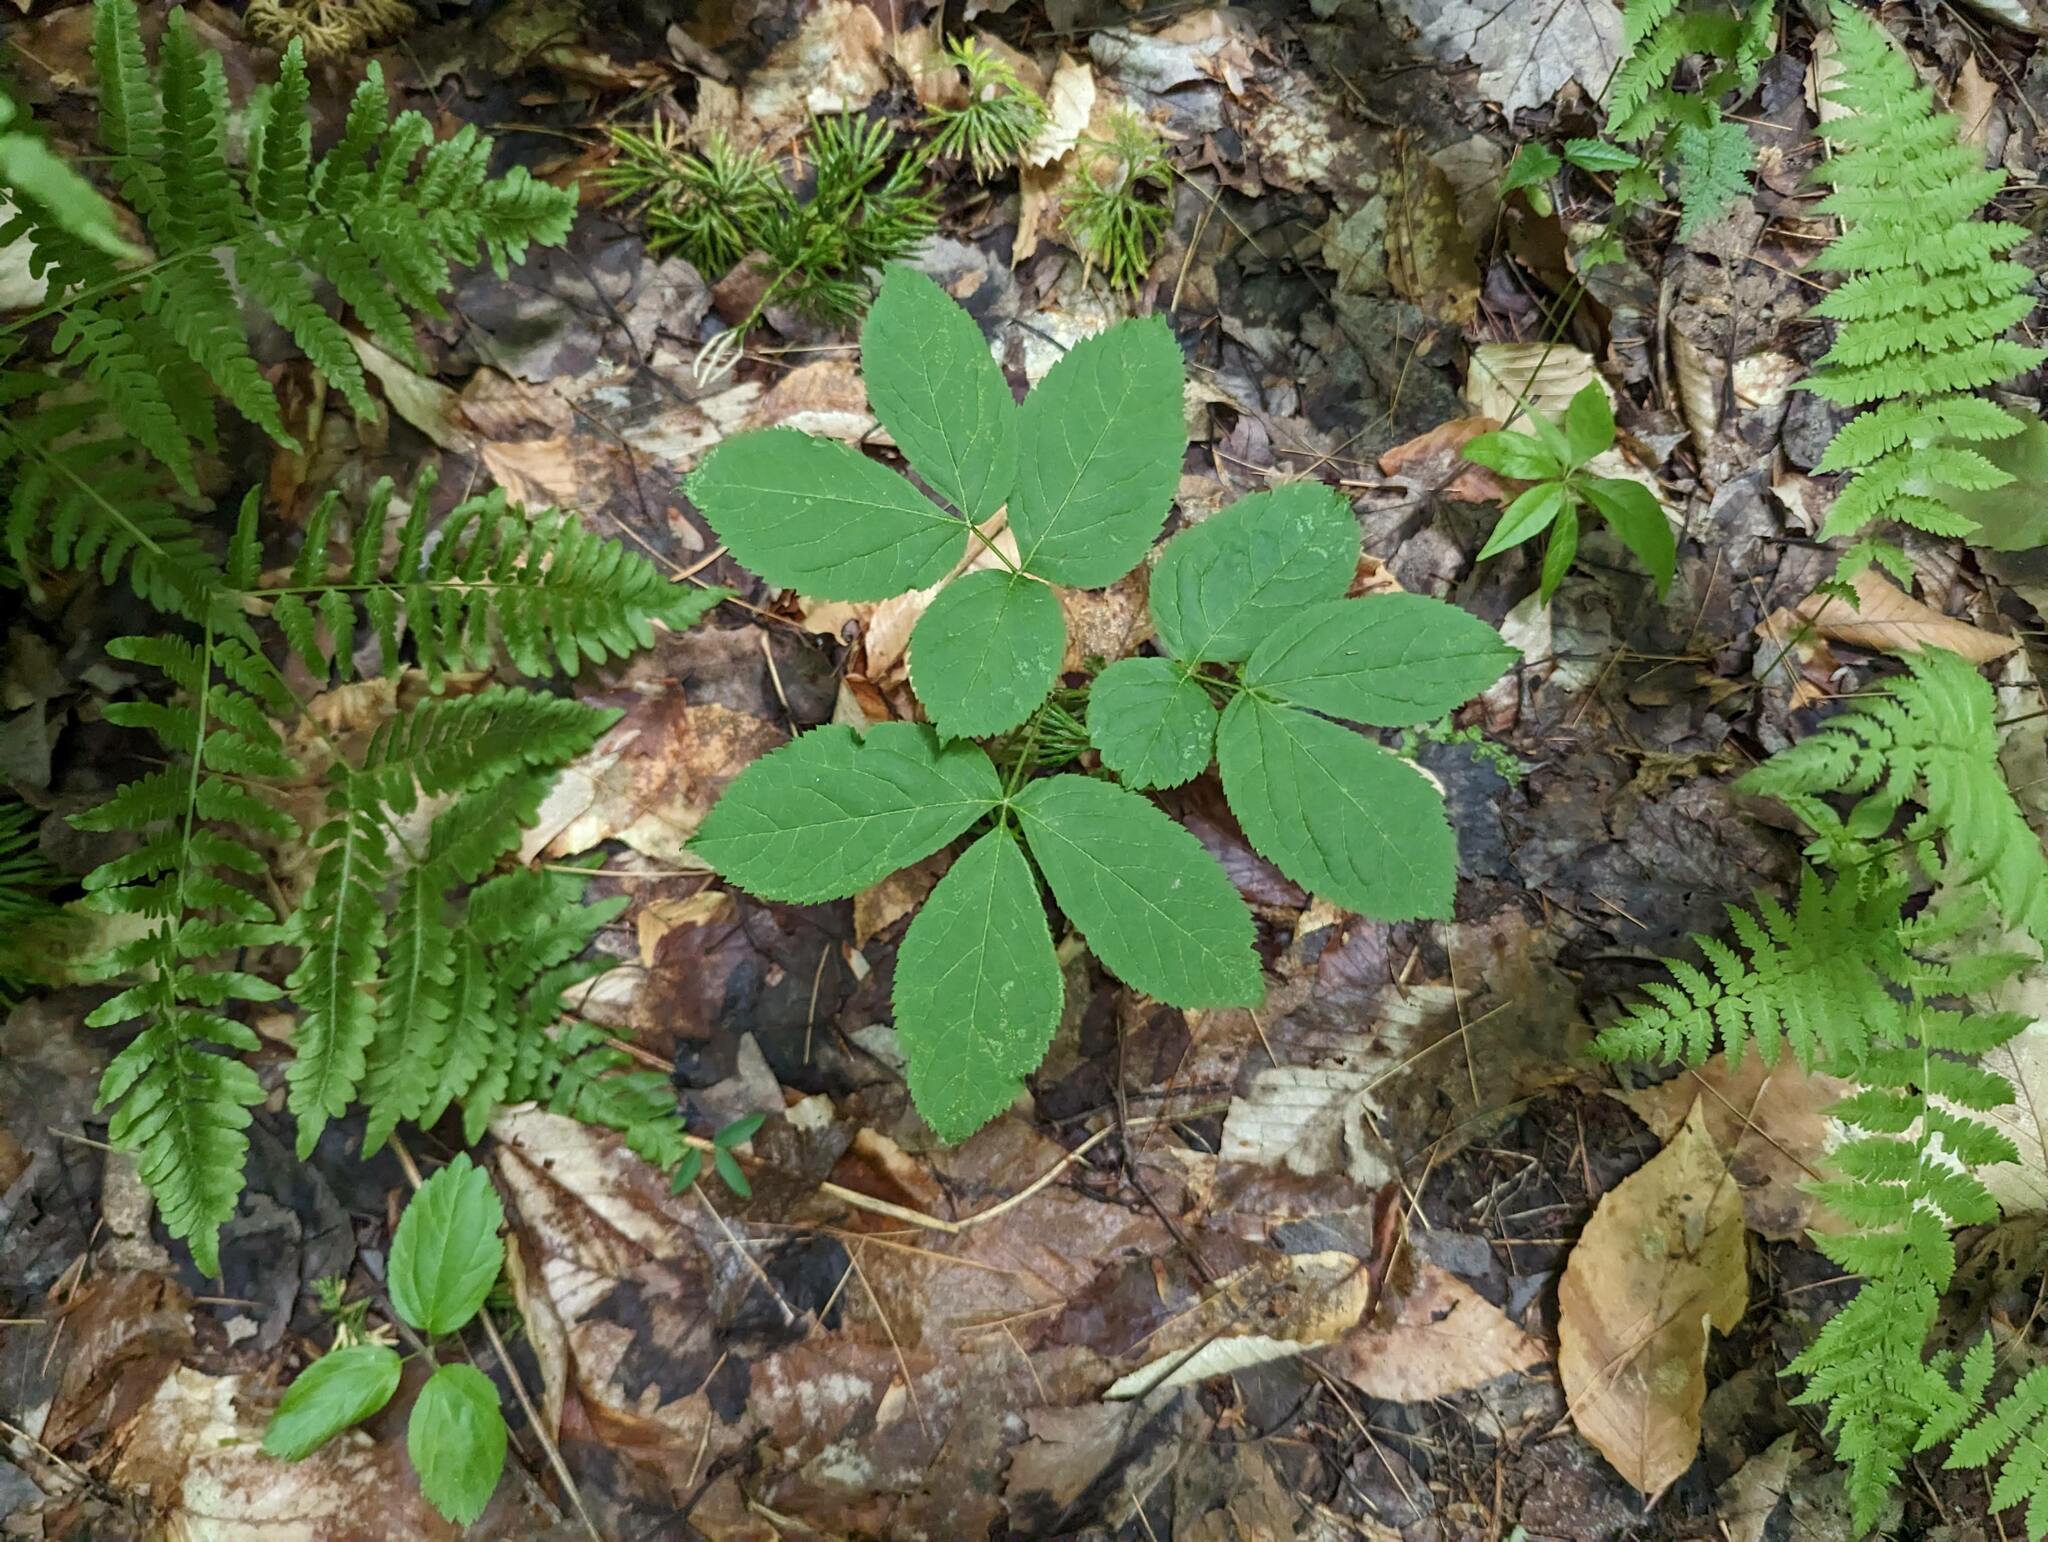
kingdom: Plantae
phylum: Tracheophyta
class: Magnoliopsida
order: Apiales
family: Araliaceae
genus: Aralia
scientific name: Aralia nudicaulis
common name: Wild sarsaparilla
